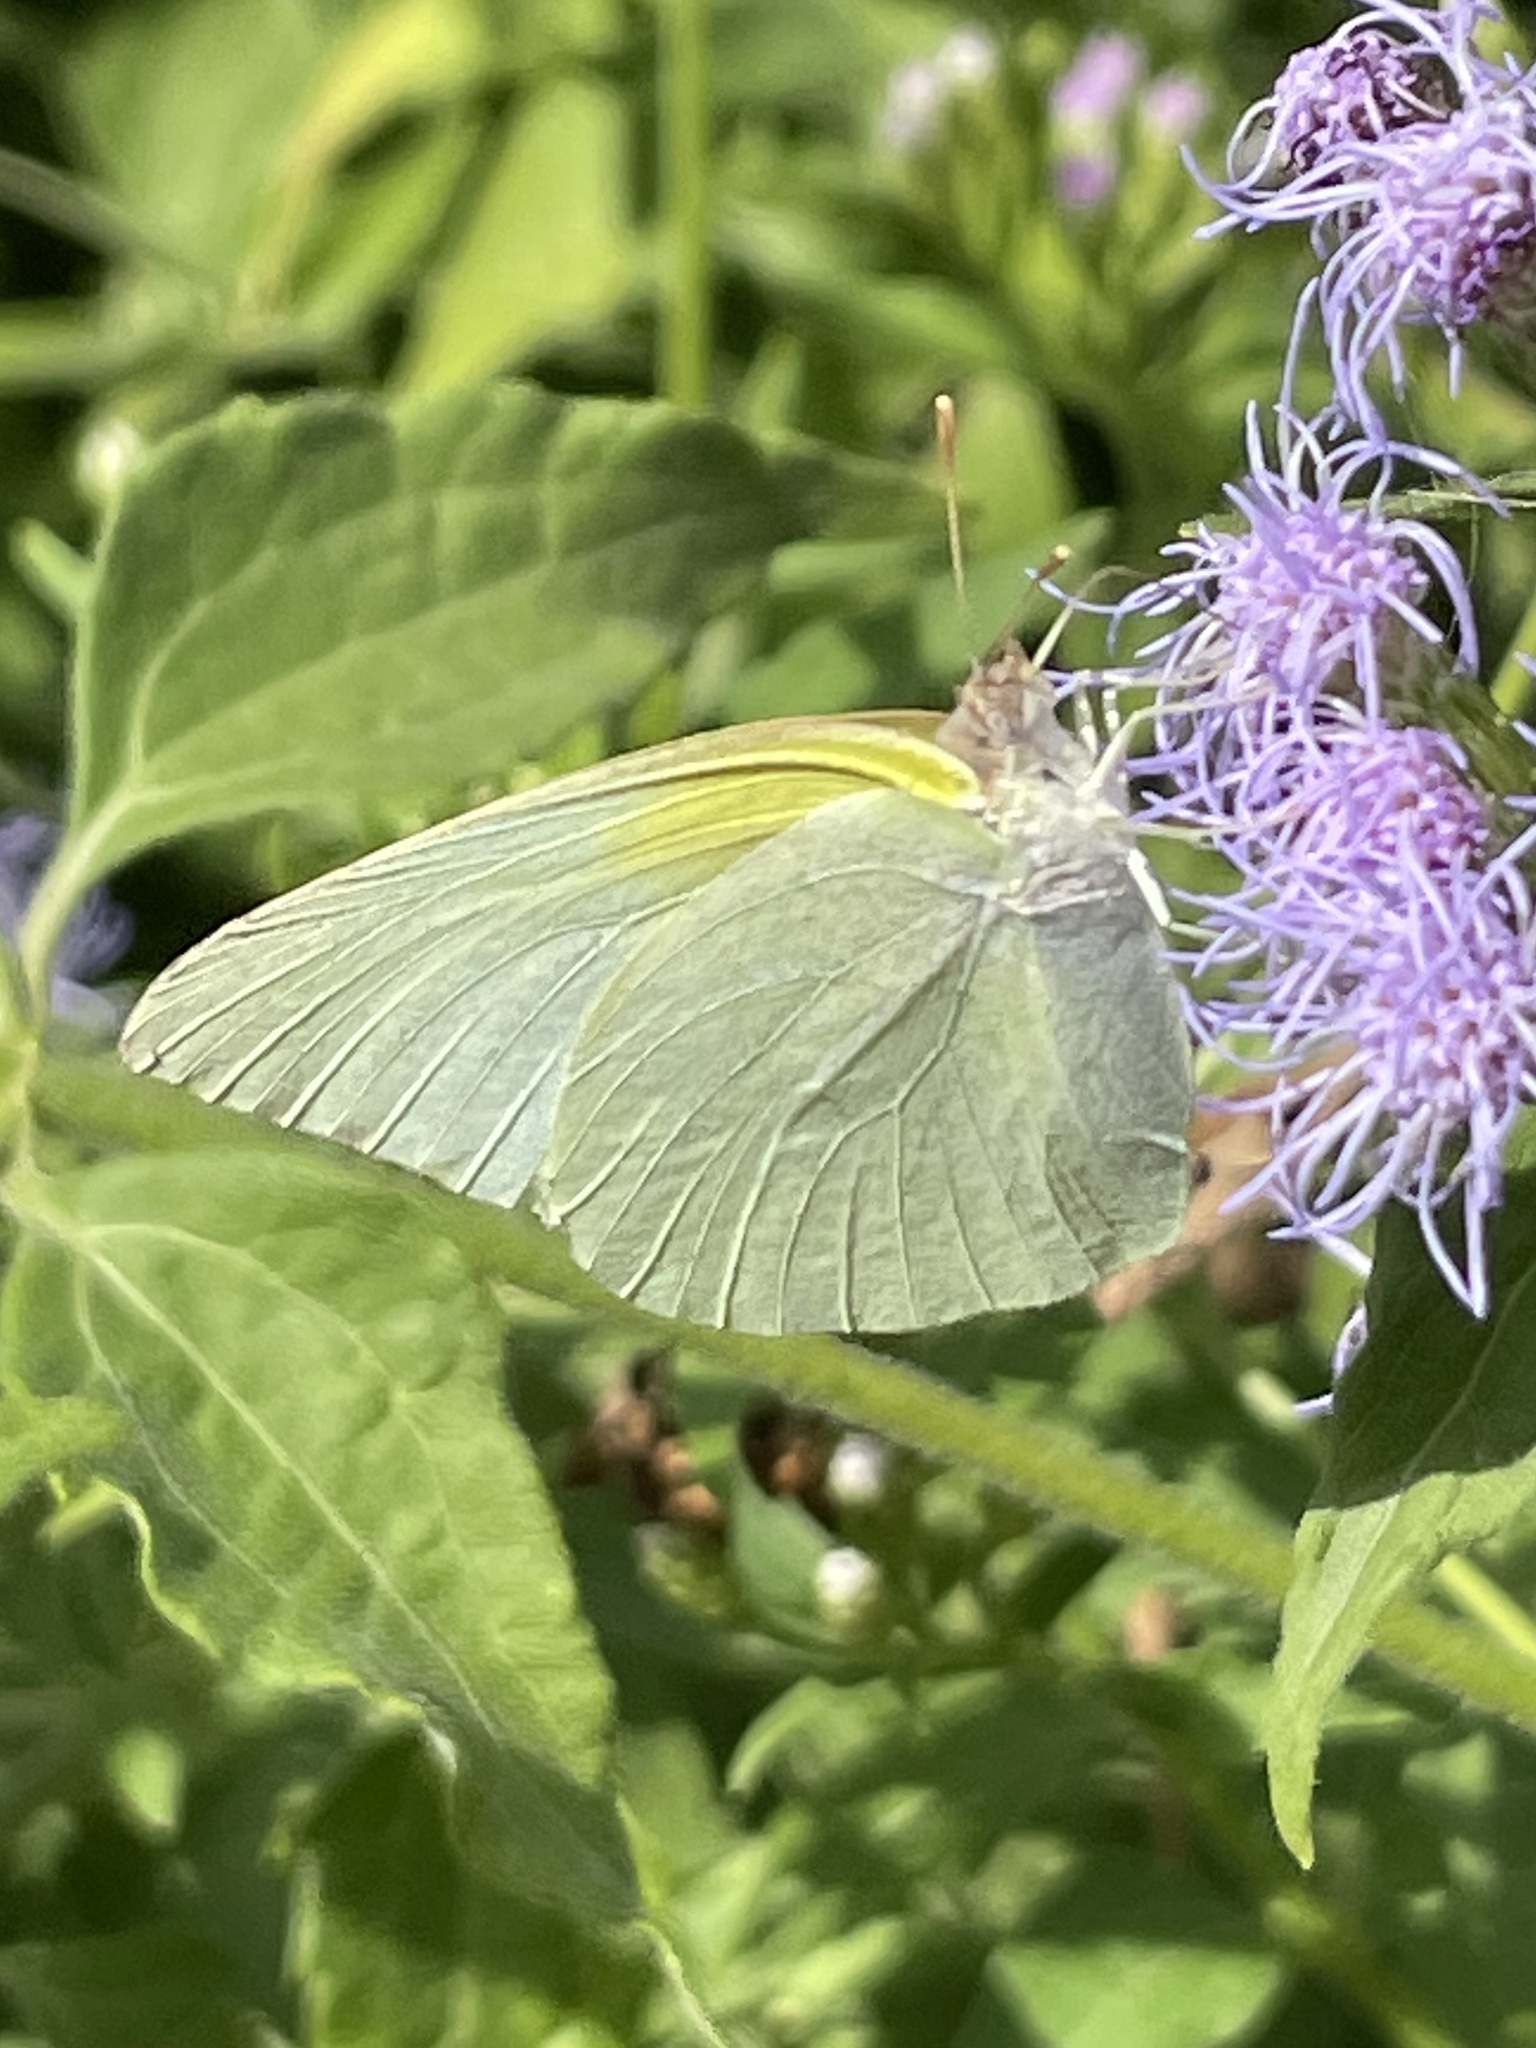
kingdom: Animalia
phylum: Arthropoda
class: Insecta
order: Lepidoptera
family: Pieridae
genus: Kricogonia
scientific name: Kricogonia lyside
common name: Guayacan sulphur,
